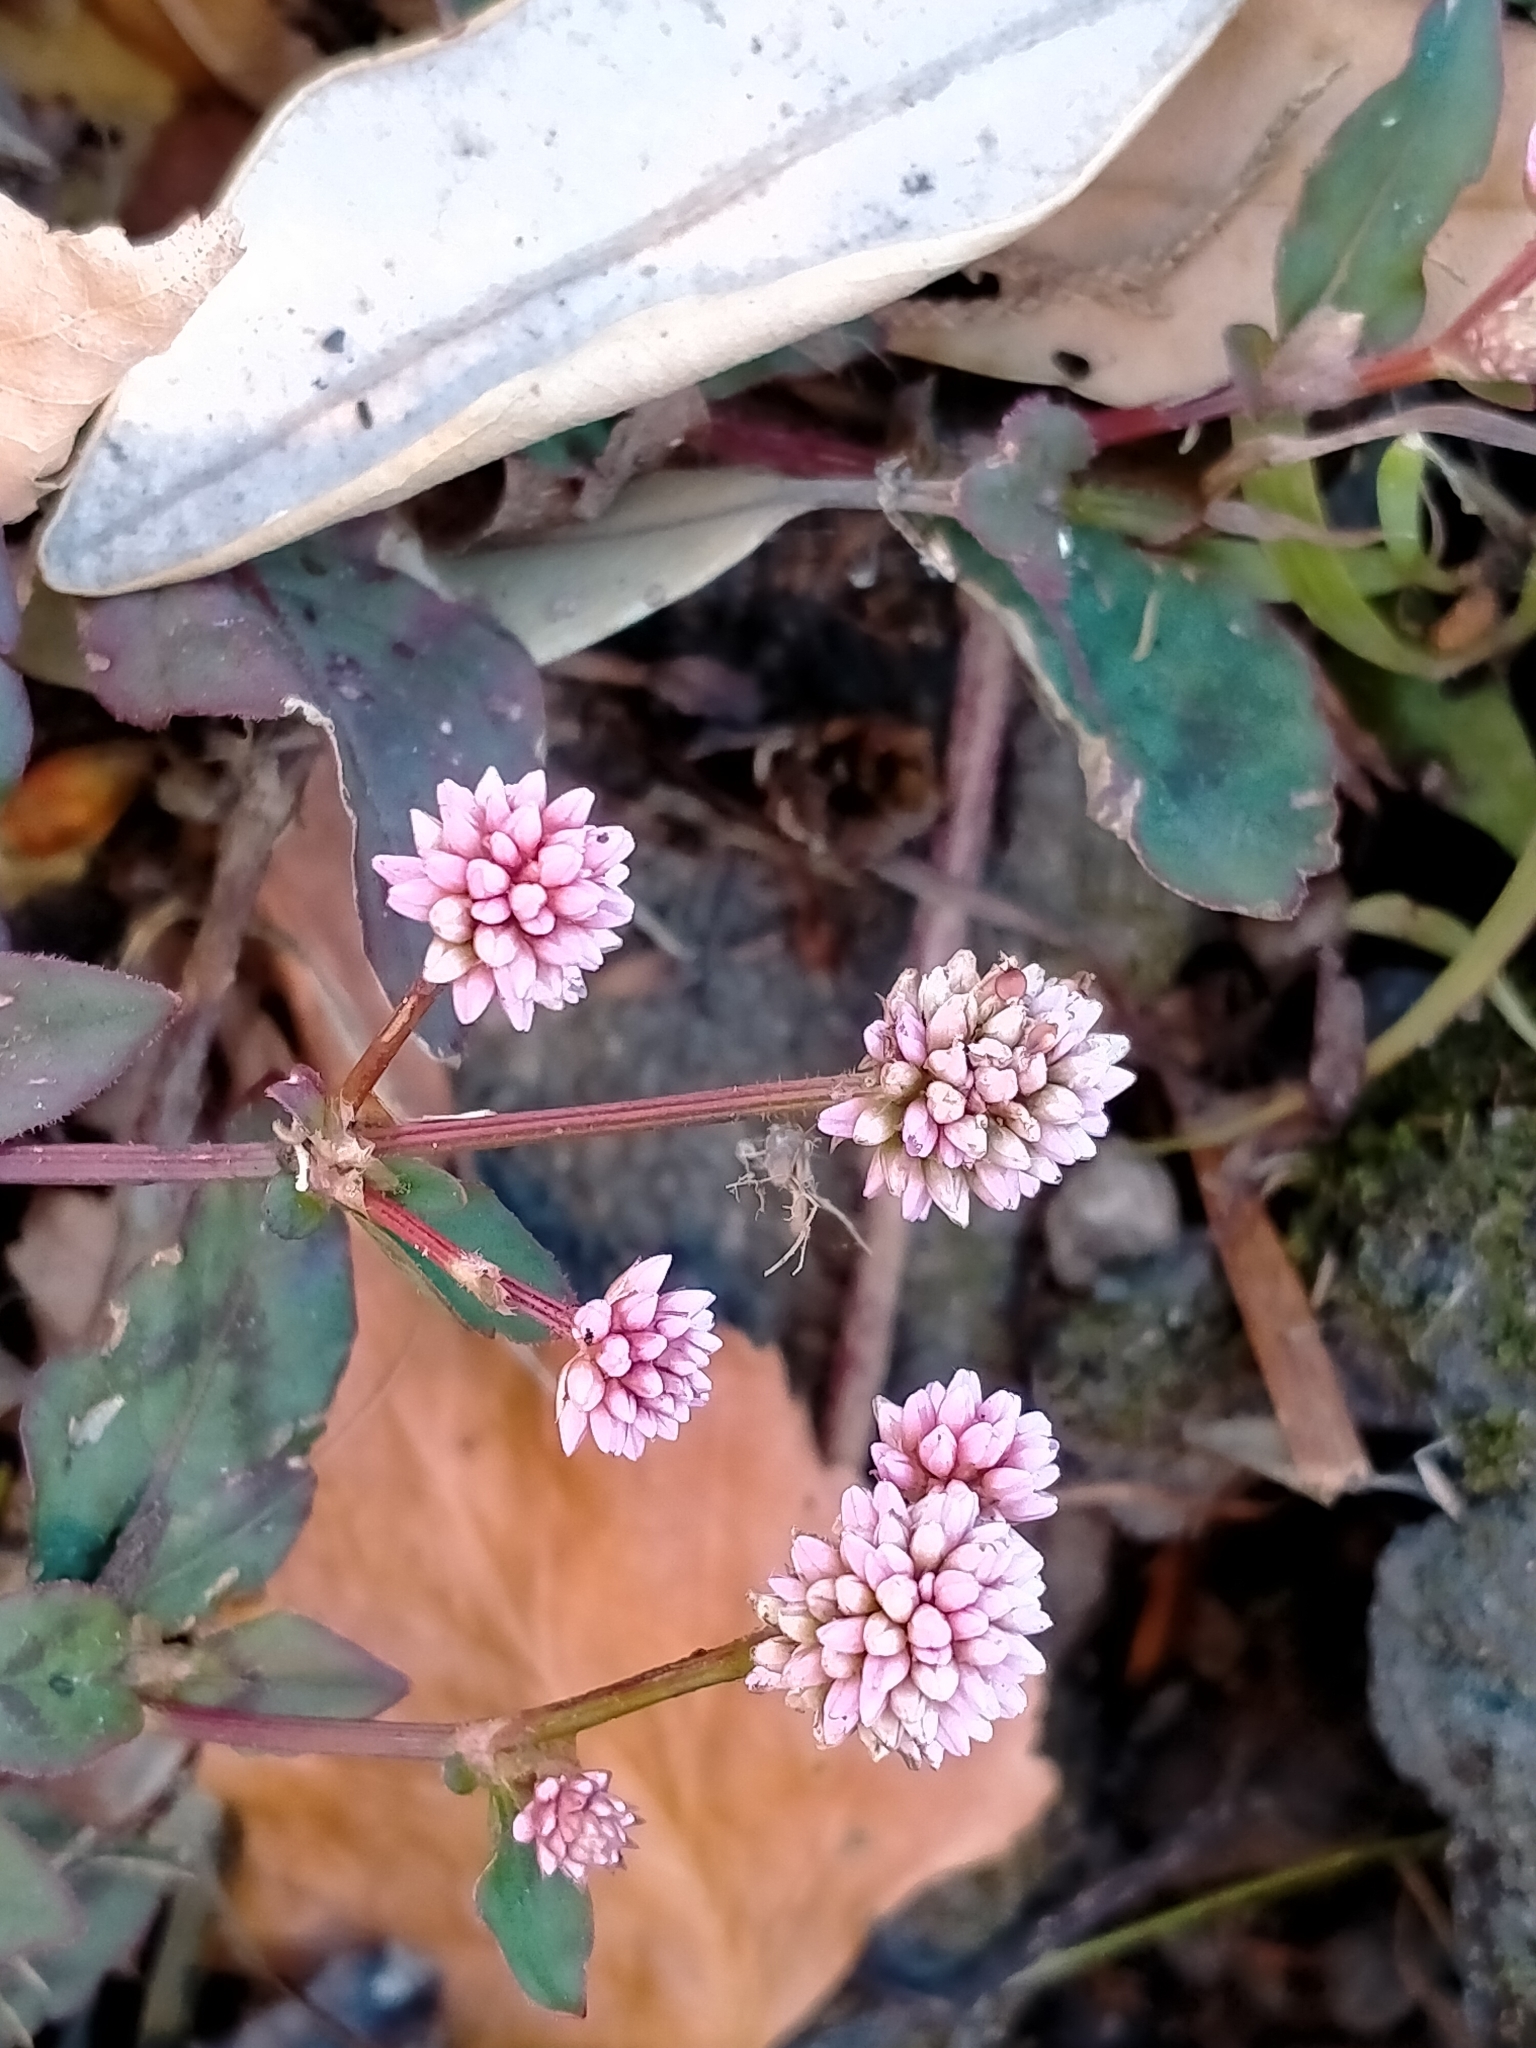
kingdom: Plantae
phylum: Tracheophyta
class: Magnoliopsida
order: Caryophyllales
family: Polygonaceae
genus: Persicaria
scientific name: Persicaria capitata
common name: Pinkhead smartweed
